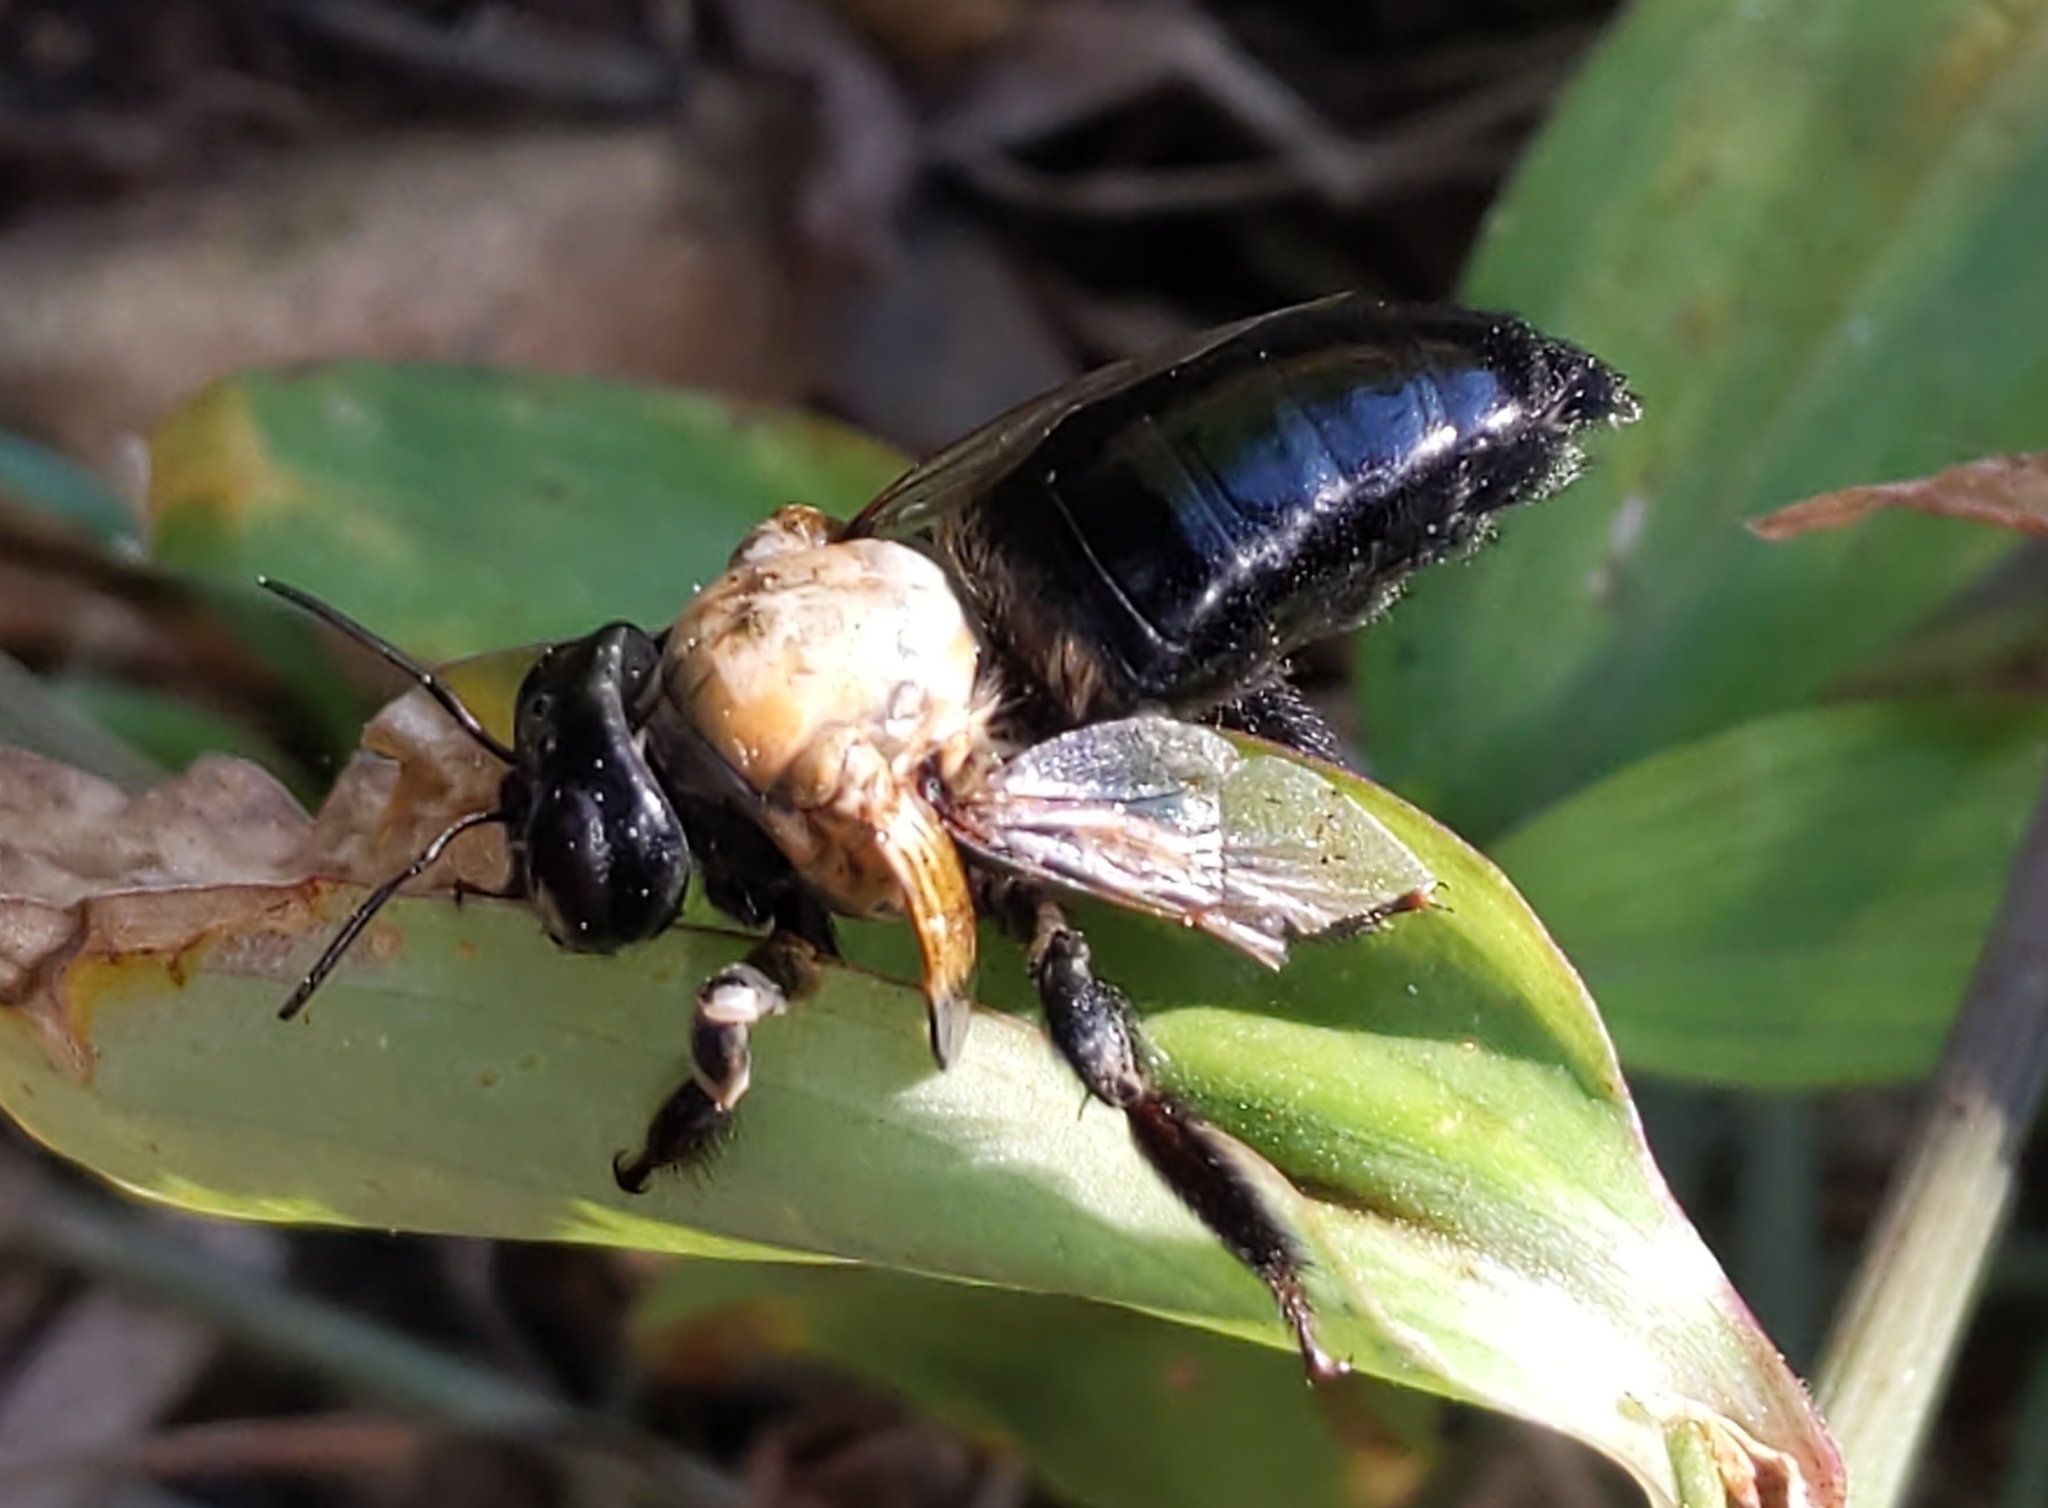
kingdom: Animalia
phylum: Arthropoda
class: Insecta
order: Hymenoptera
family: Apidae
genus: Xylocopa
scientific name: Xylocopa virginica
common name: Carpenter bee
